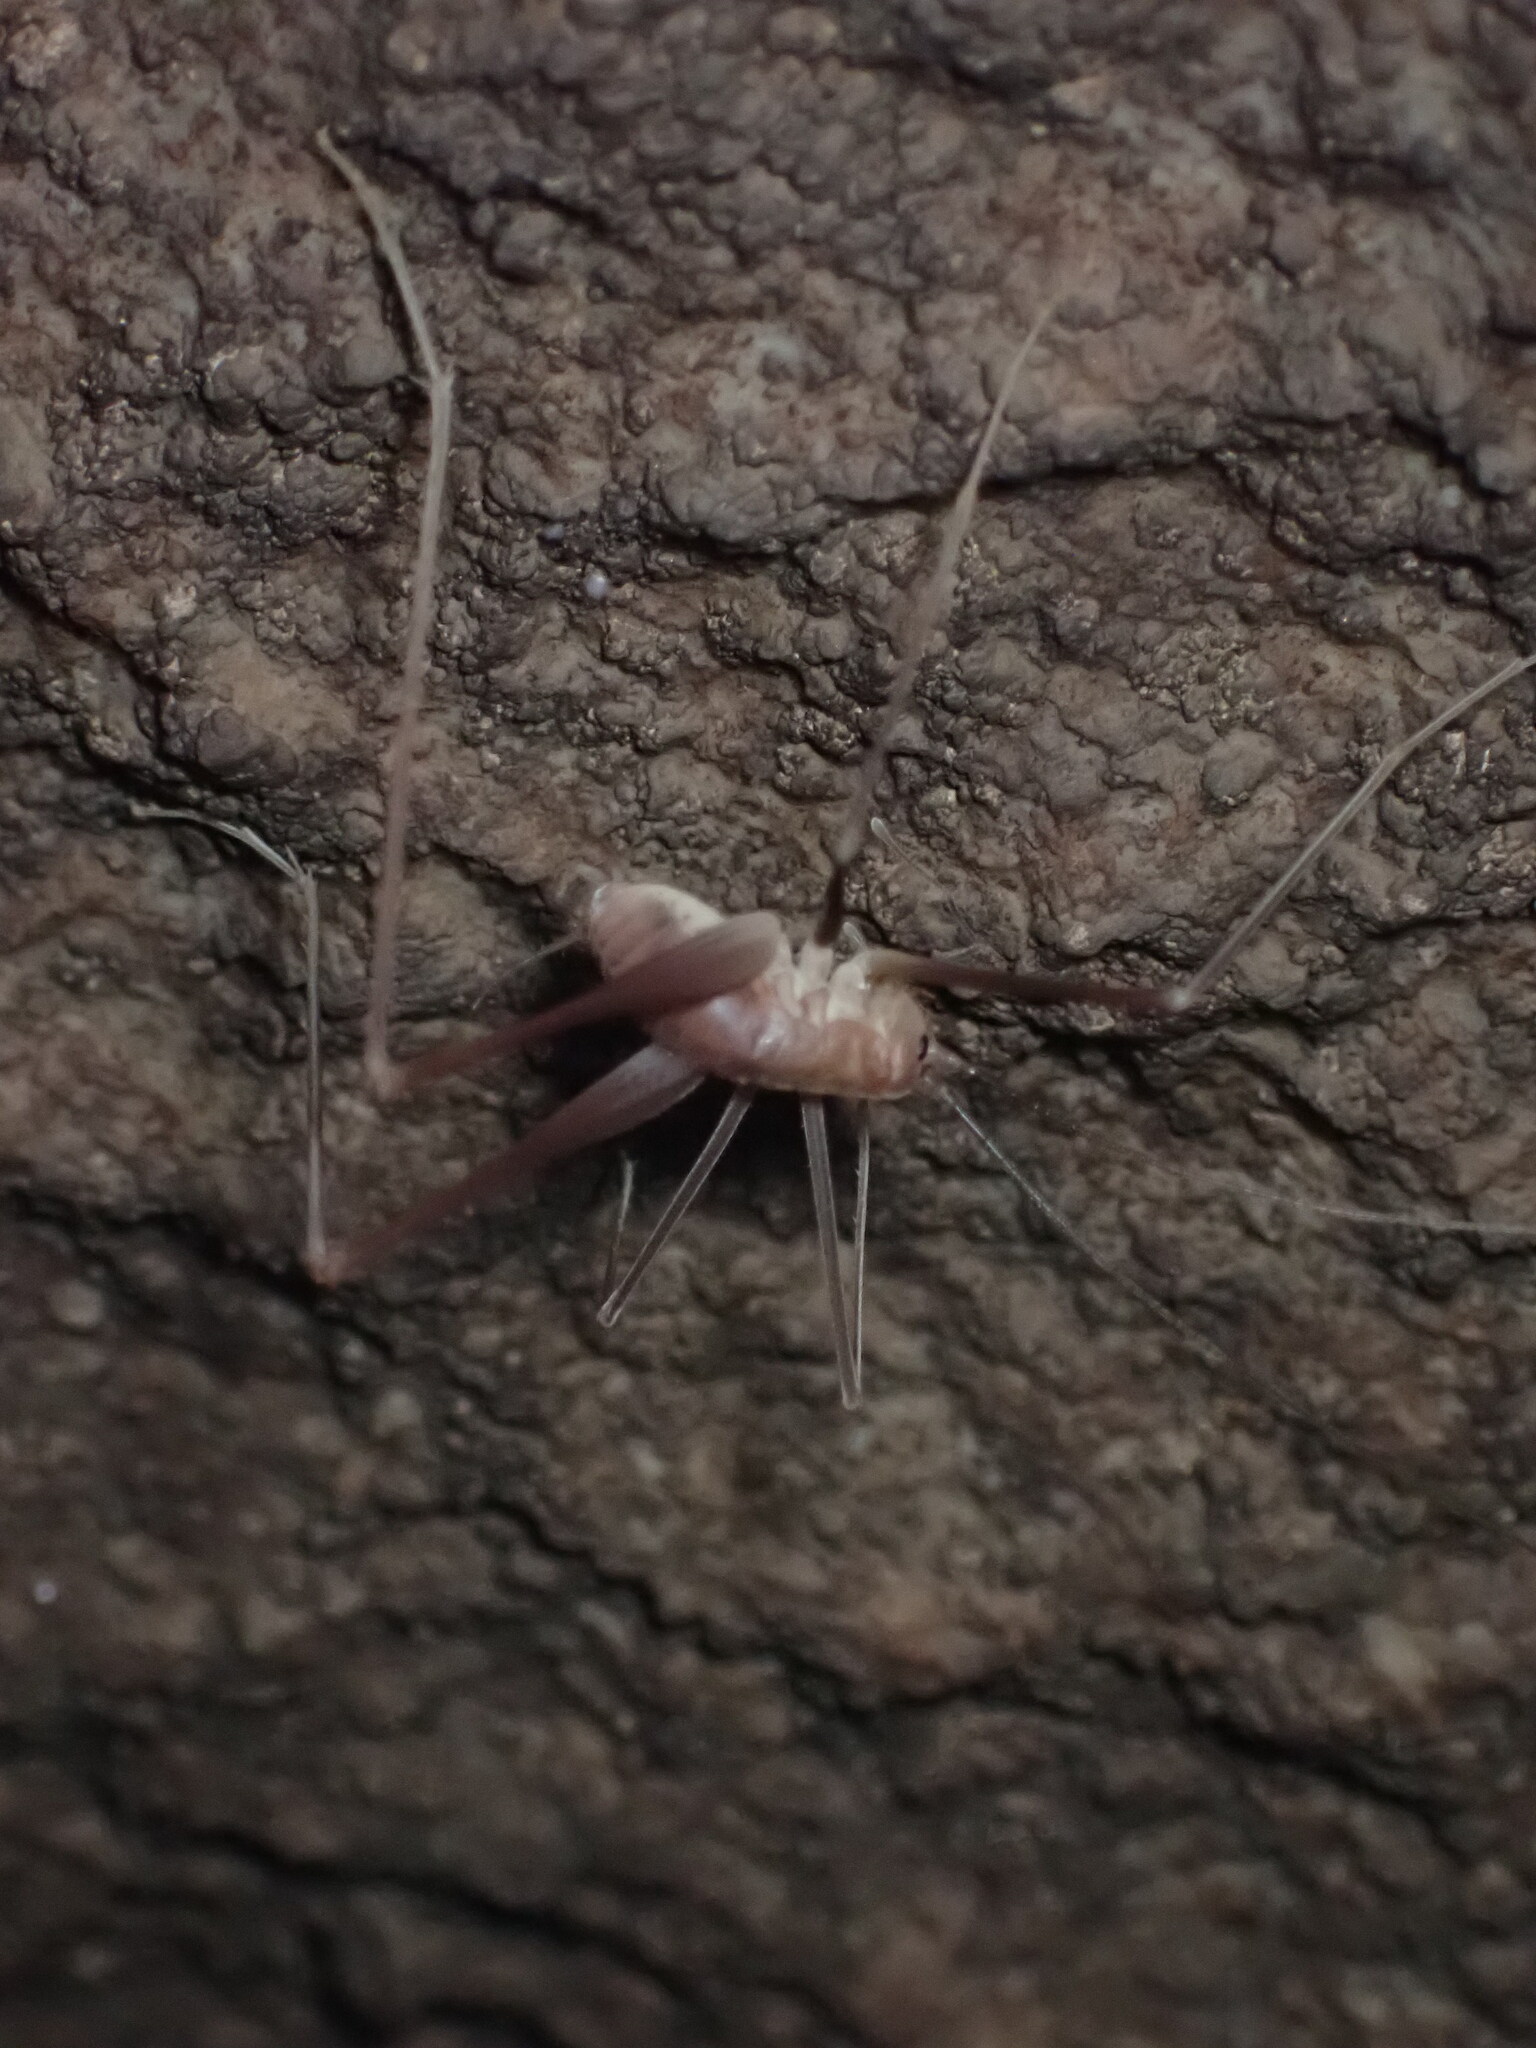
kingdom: Animalia
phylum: Arthropoda
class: Insecta
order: Orthoptera
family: Rhaphidophoridae
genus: Hadenoecus
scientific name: Hadenoecus jonesi
